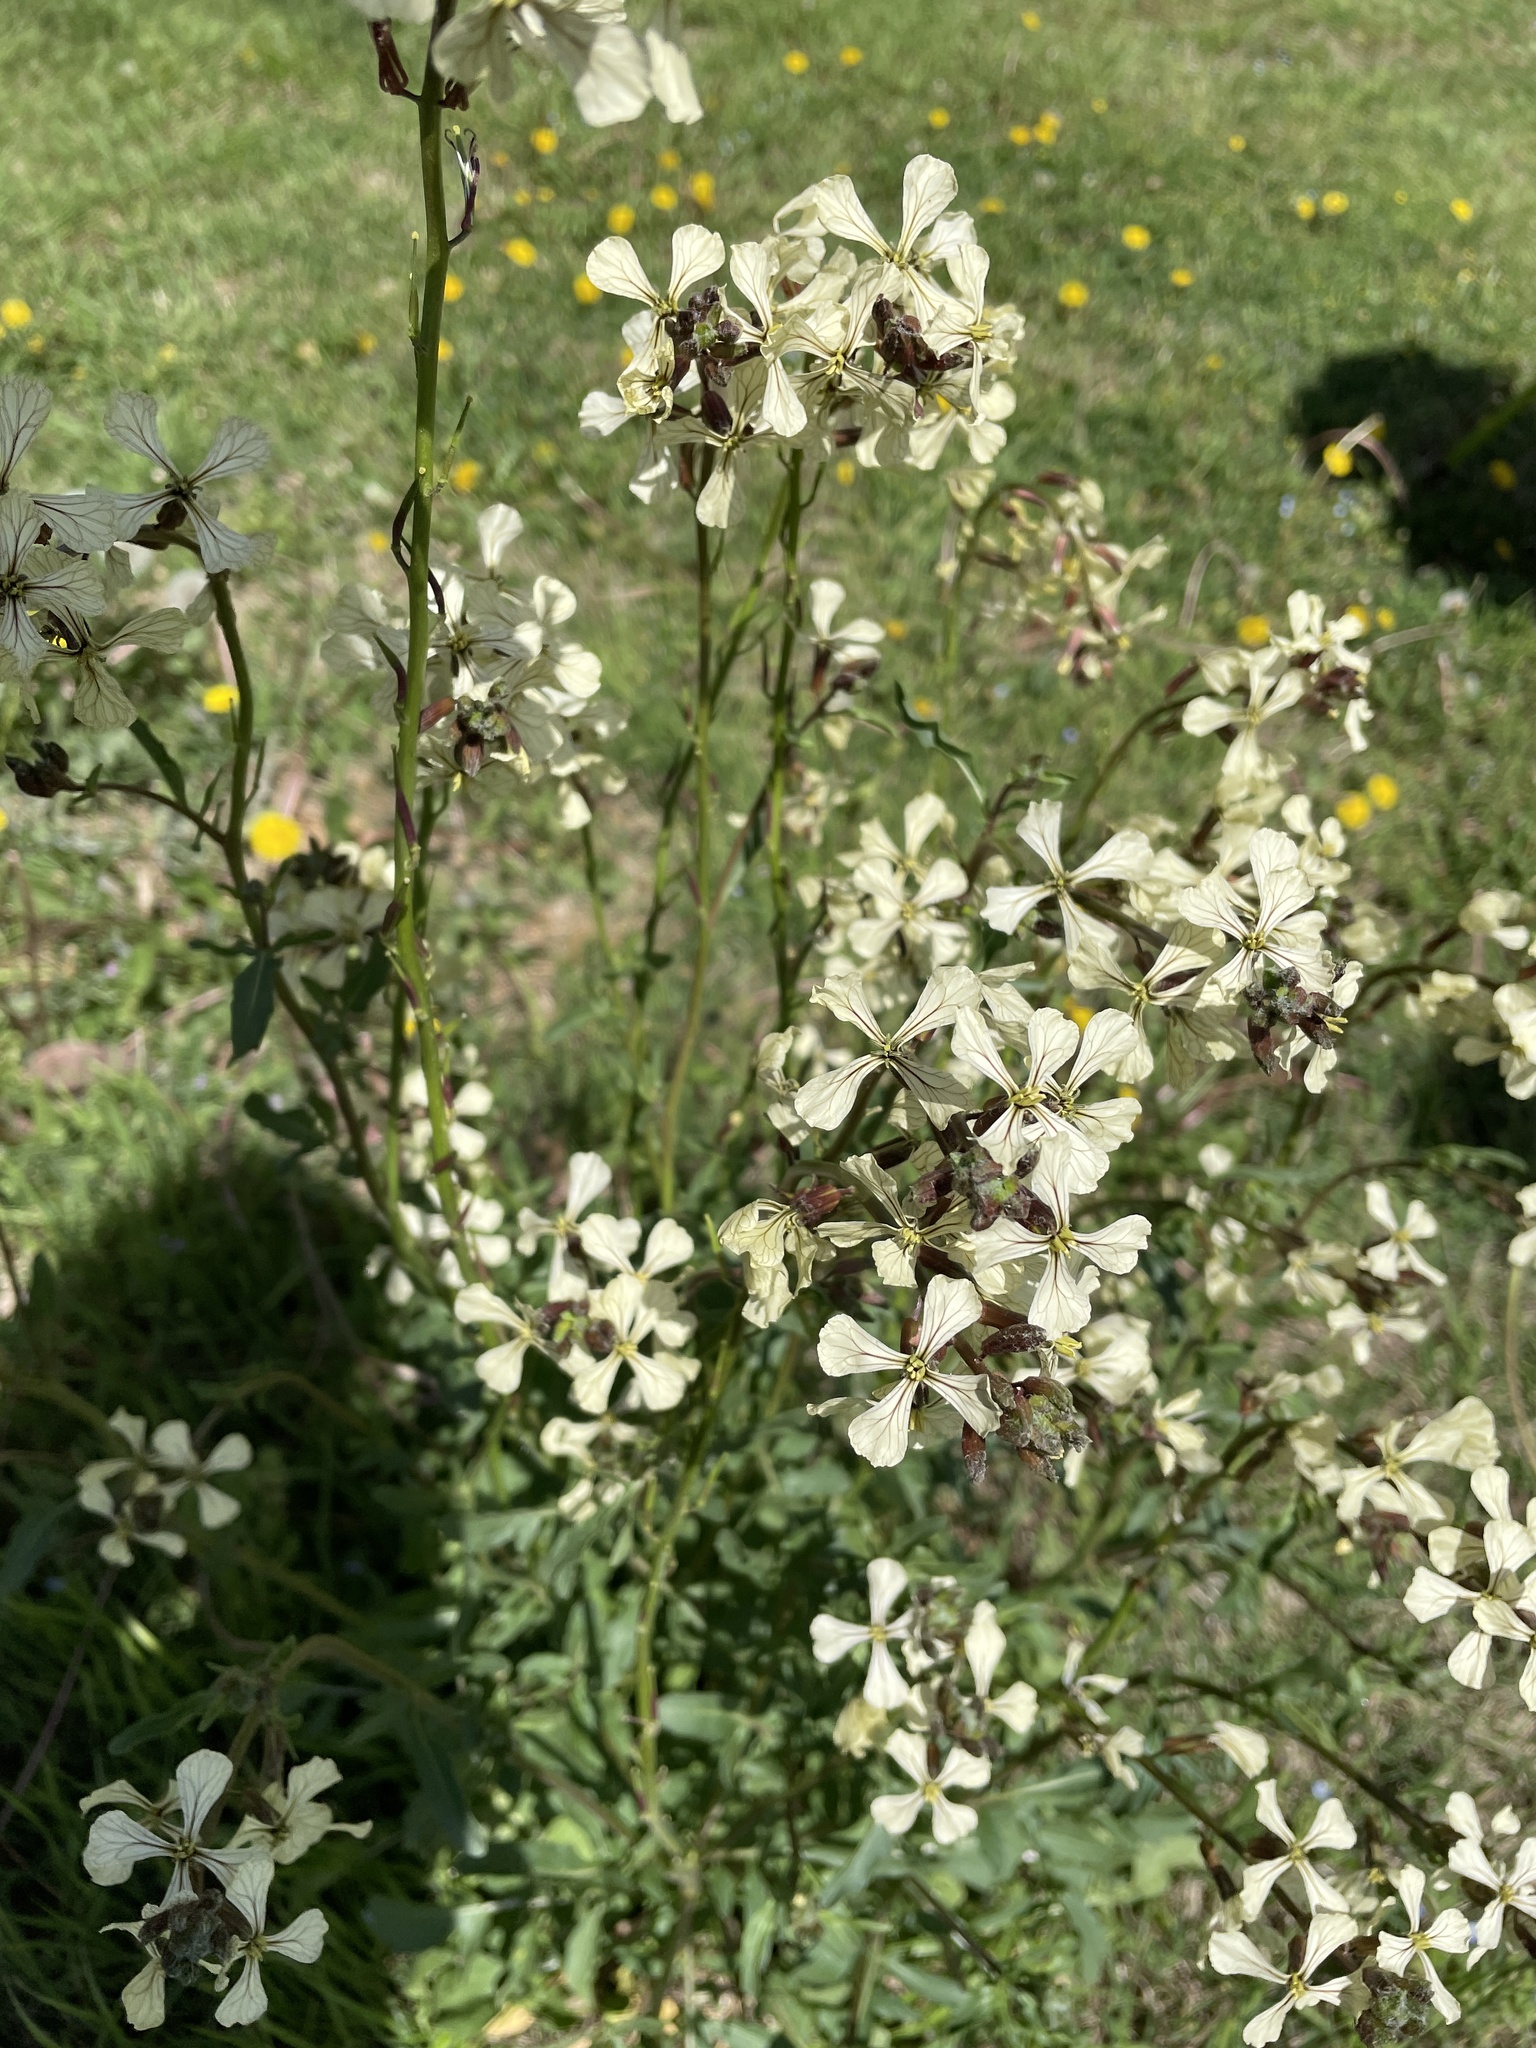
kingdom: Plantae
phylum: Tracheophyta
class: Magnoliopsida
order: Brassicales
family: Brassicaceae
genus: Eruca
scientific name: Eruca vesicaria
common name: Garden rocket
